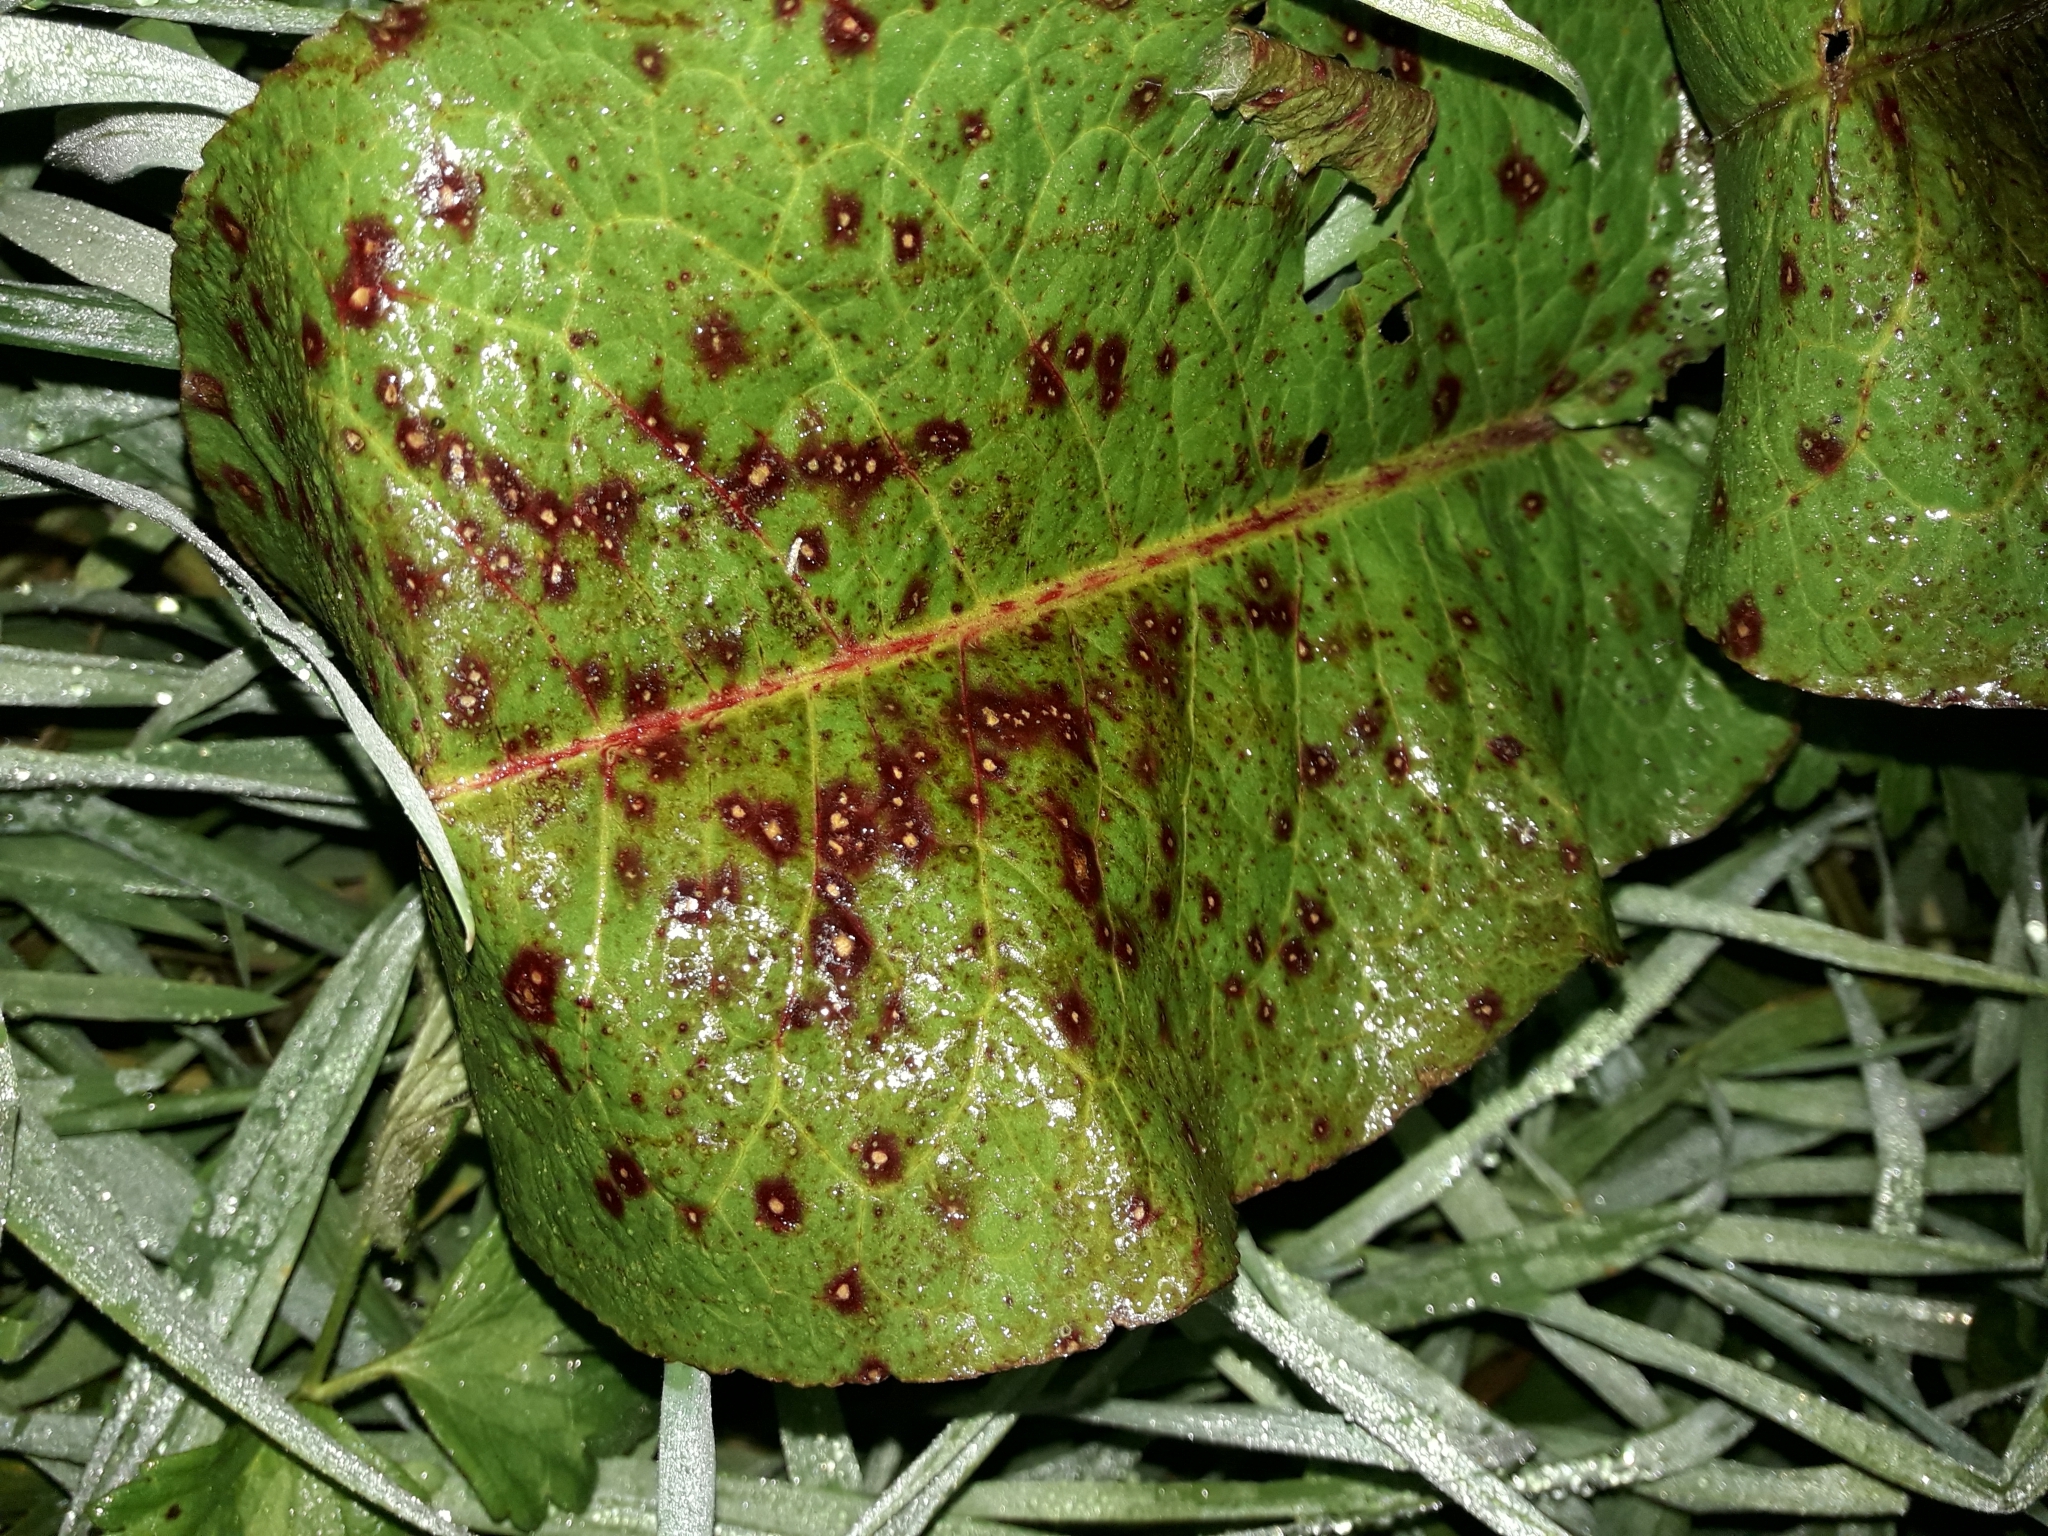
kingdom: Fungi
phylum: Ascomycota
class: Dothideomycetes
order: Mycosphaerellales
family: Mycosphaerellaceae
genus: Ramularia
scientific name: Ramularia rubella
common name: Red dock spot
